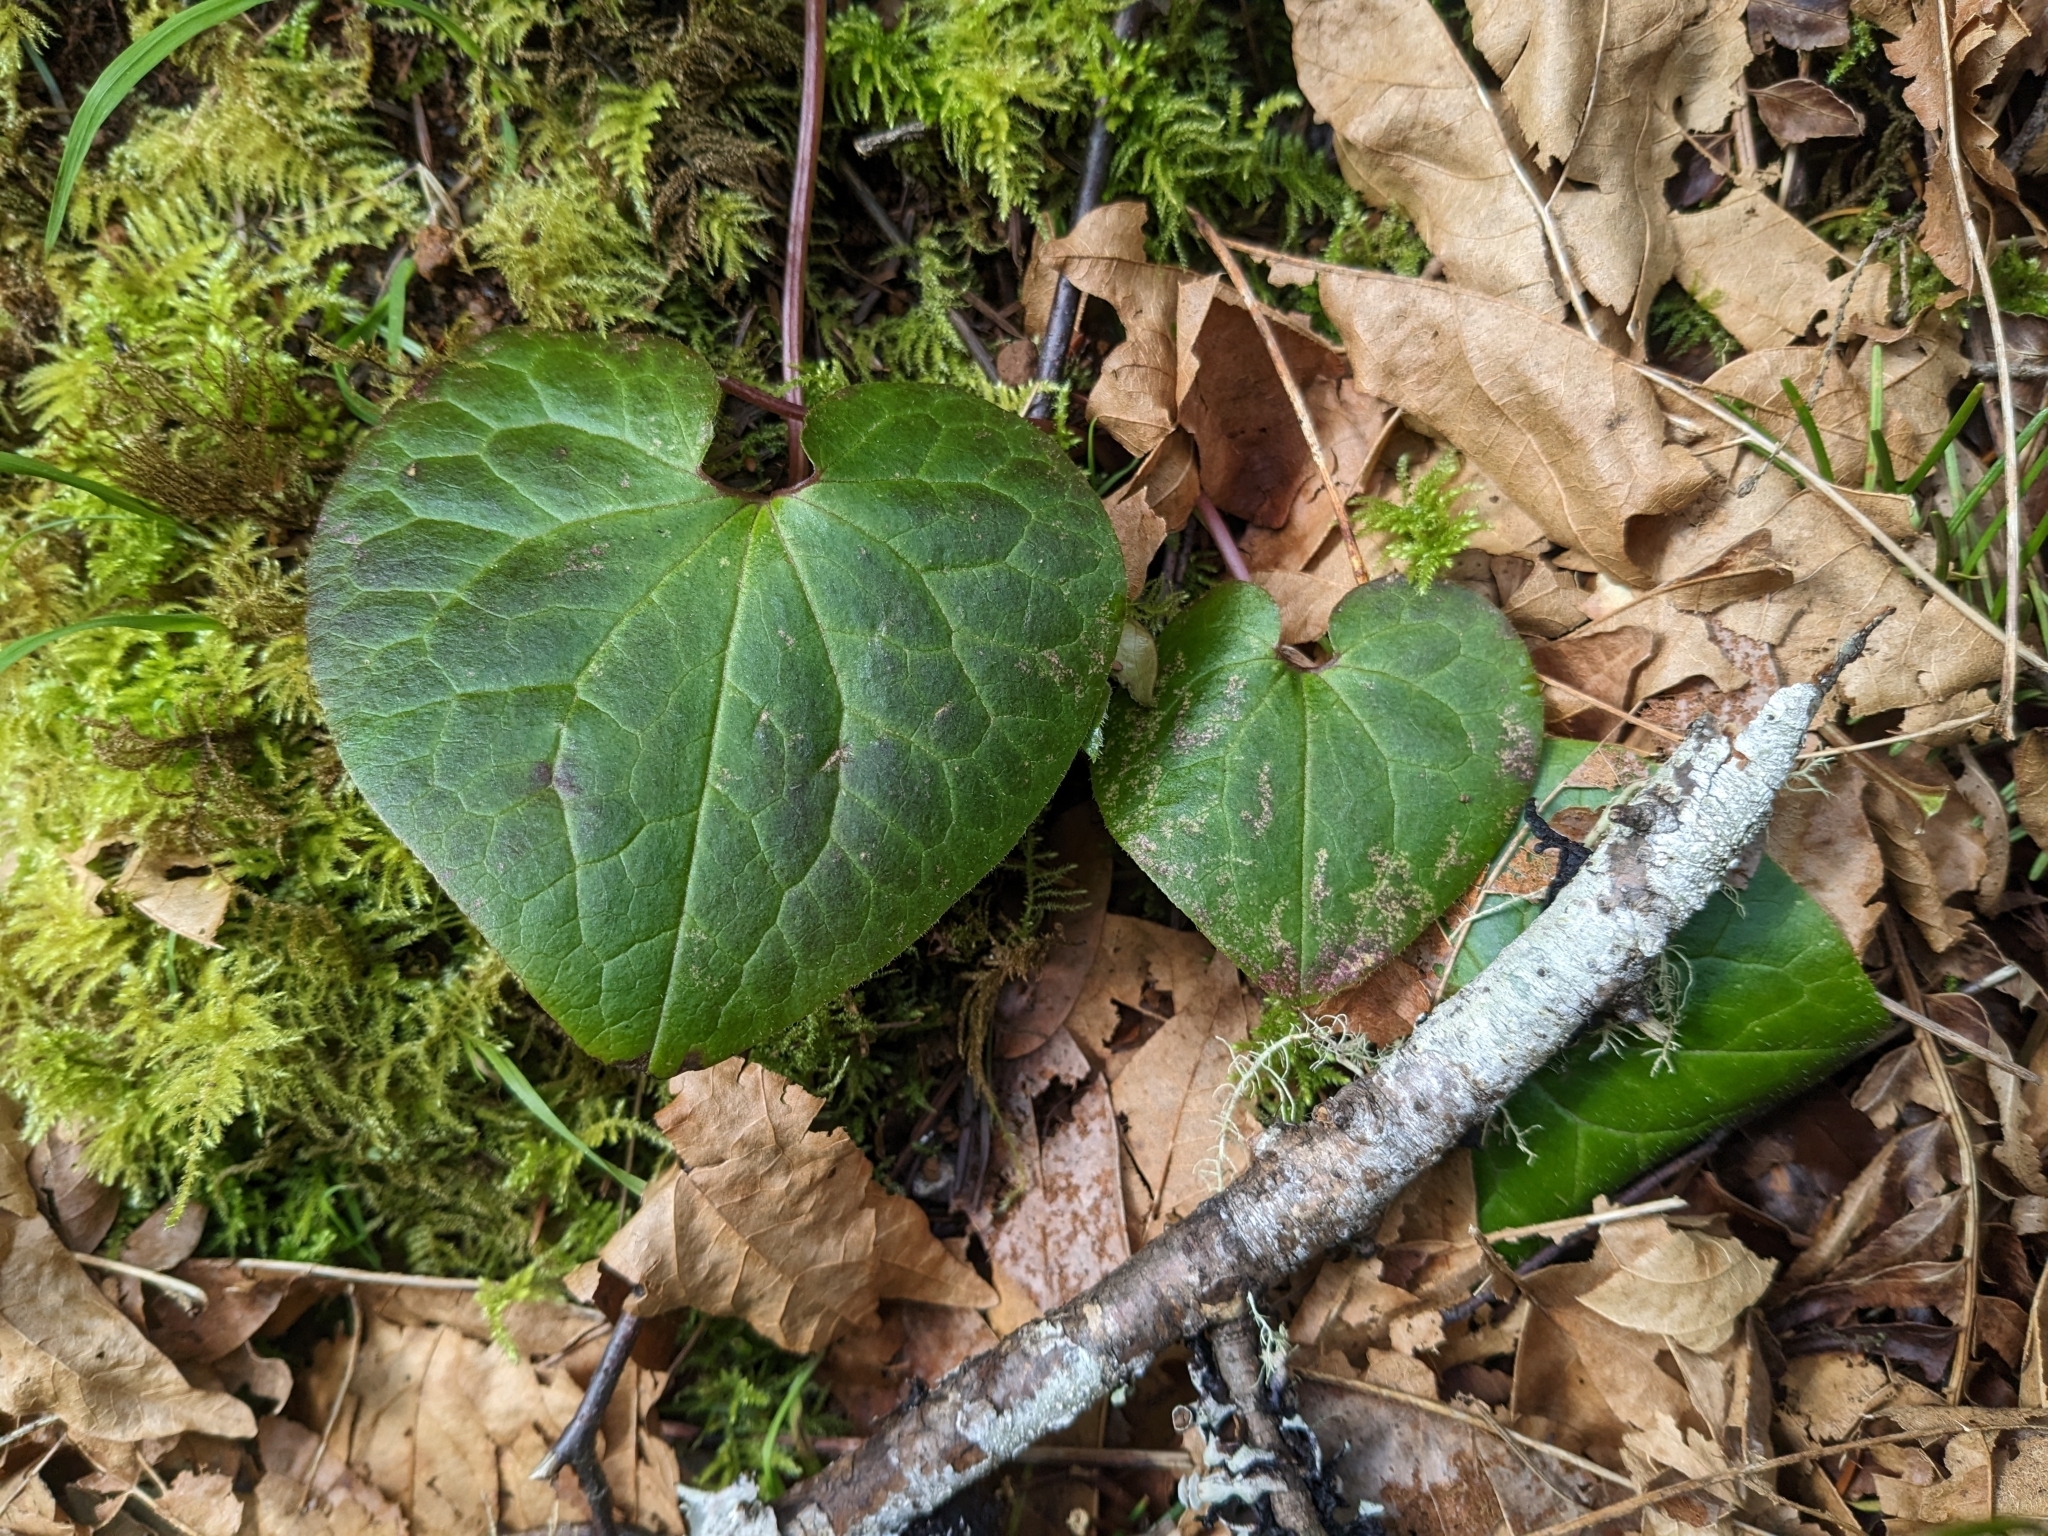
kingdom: Plantae
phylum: Tracheophyta
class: Magnoliopsida
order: Piperales
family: Aristolochiaceae
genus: Asarum
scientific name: Asarum caudatum
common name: Wild ginger
